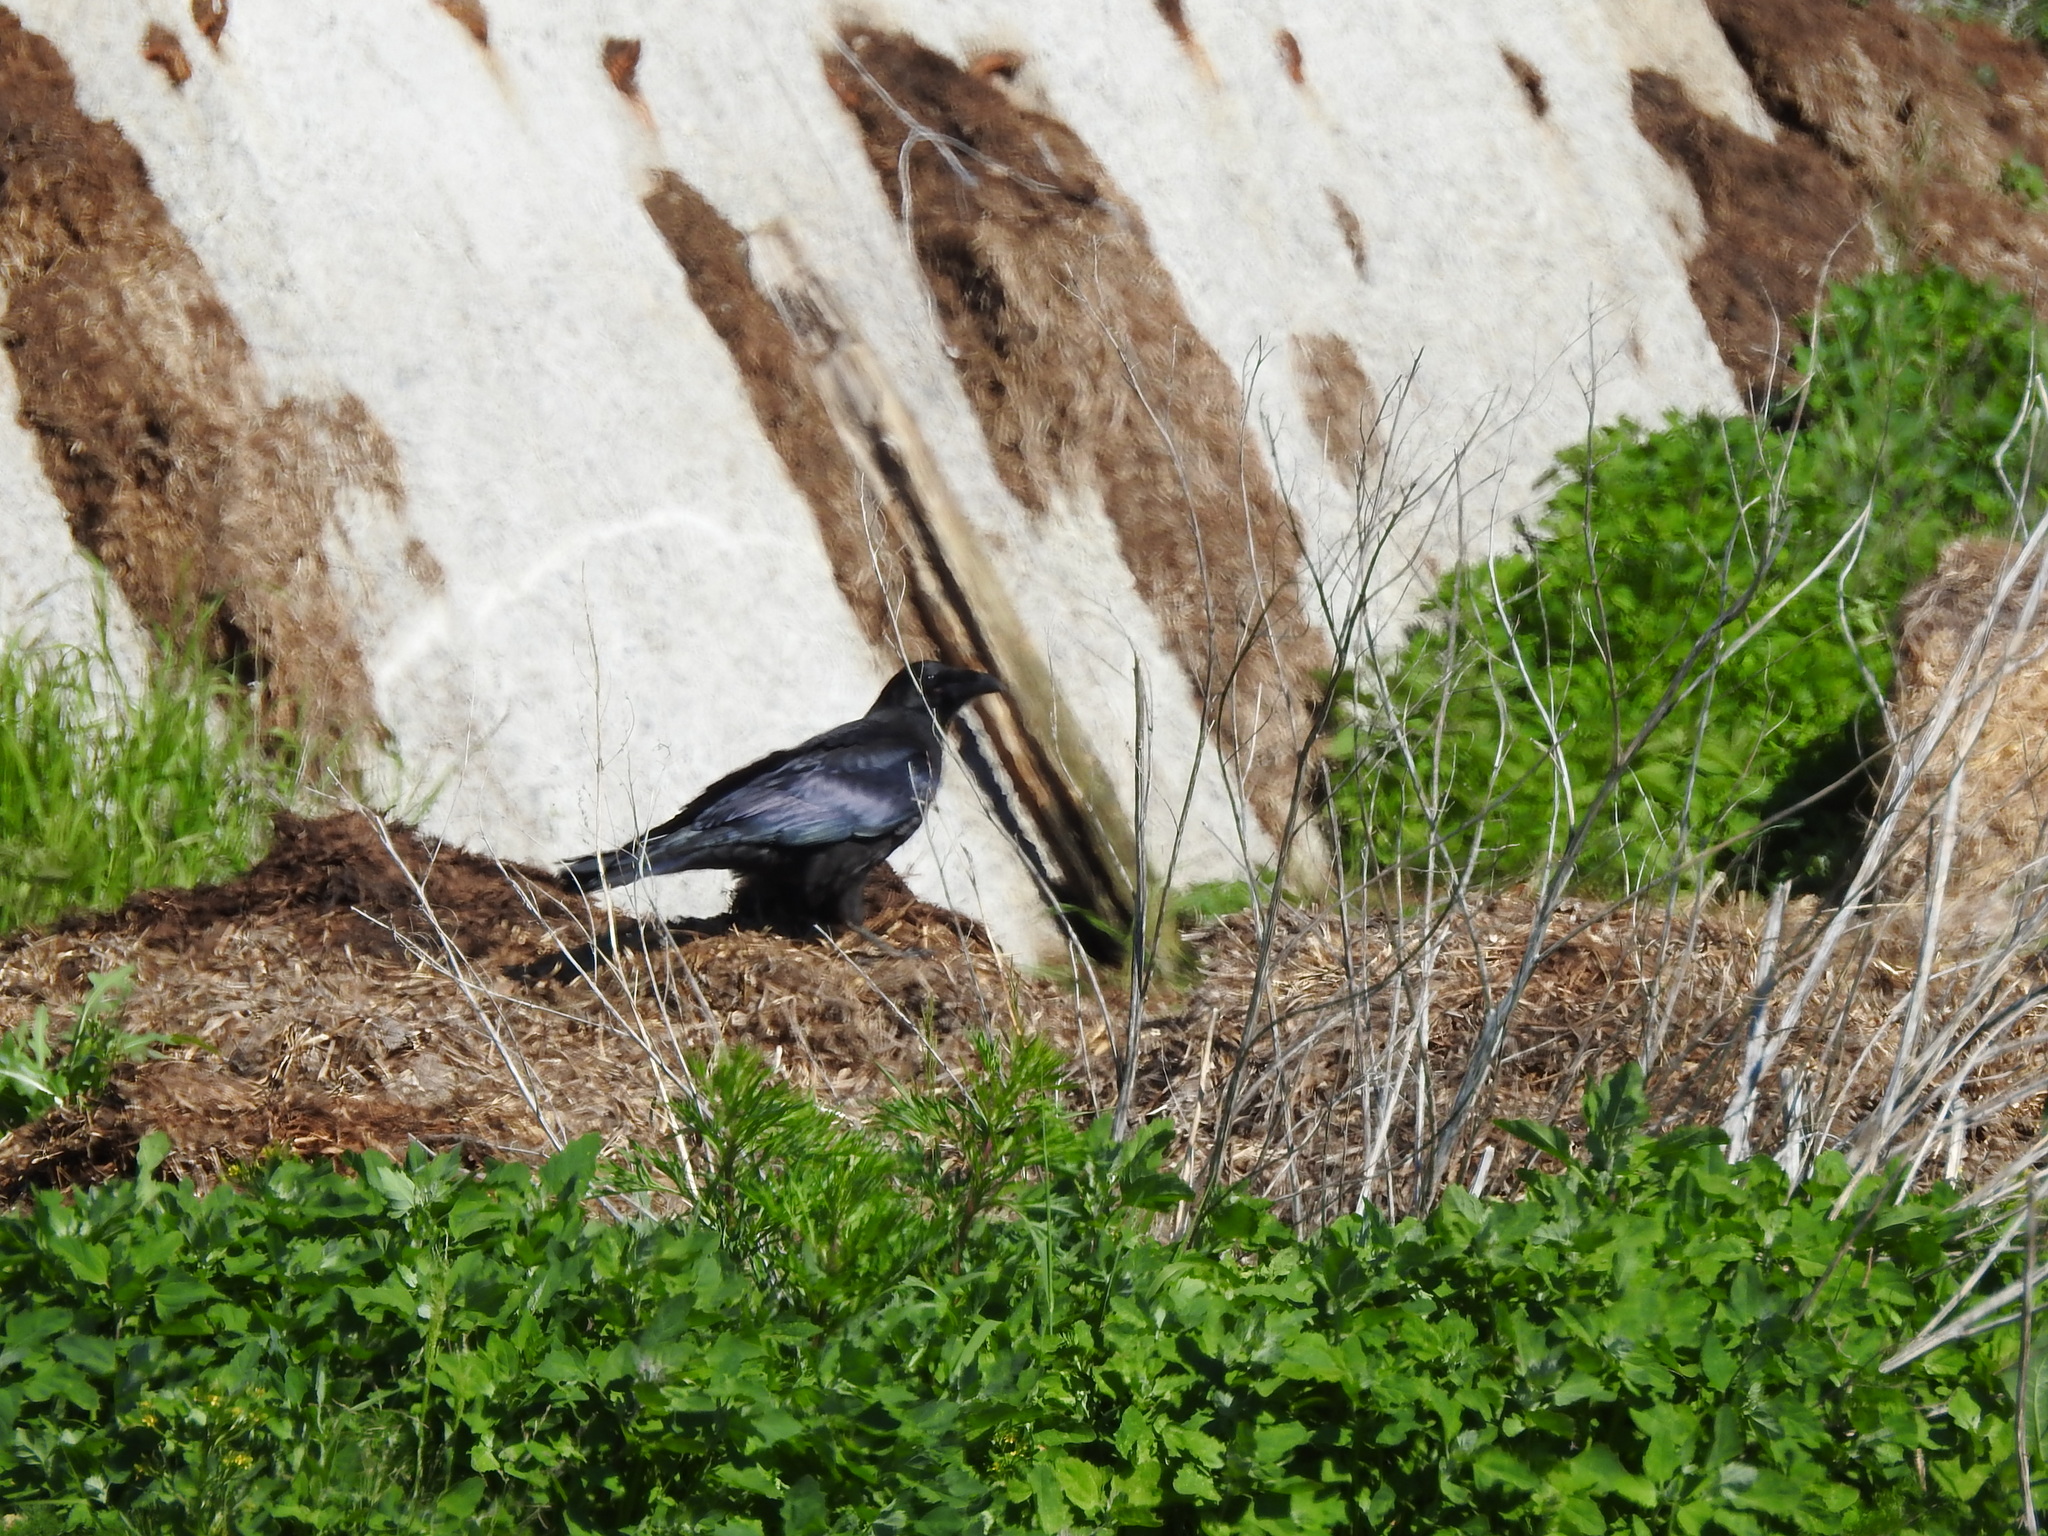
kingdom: Animalia
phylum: Chordata
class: Aves
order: Passeriformes
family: Corvidae
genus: Corvus
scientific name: Corvus corax
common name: Common raven
